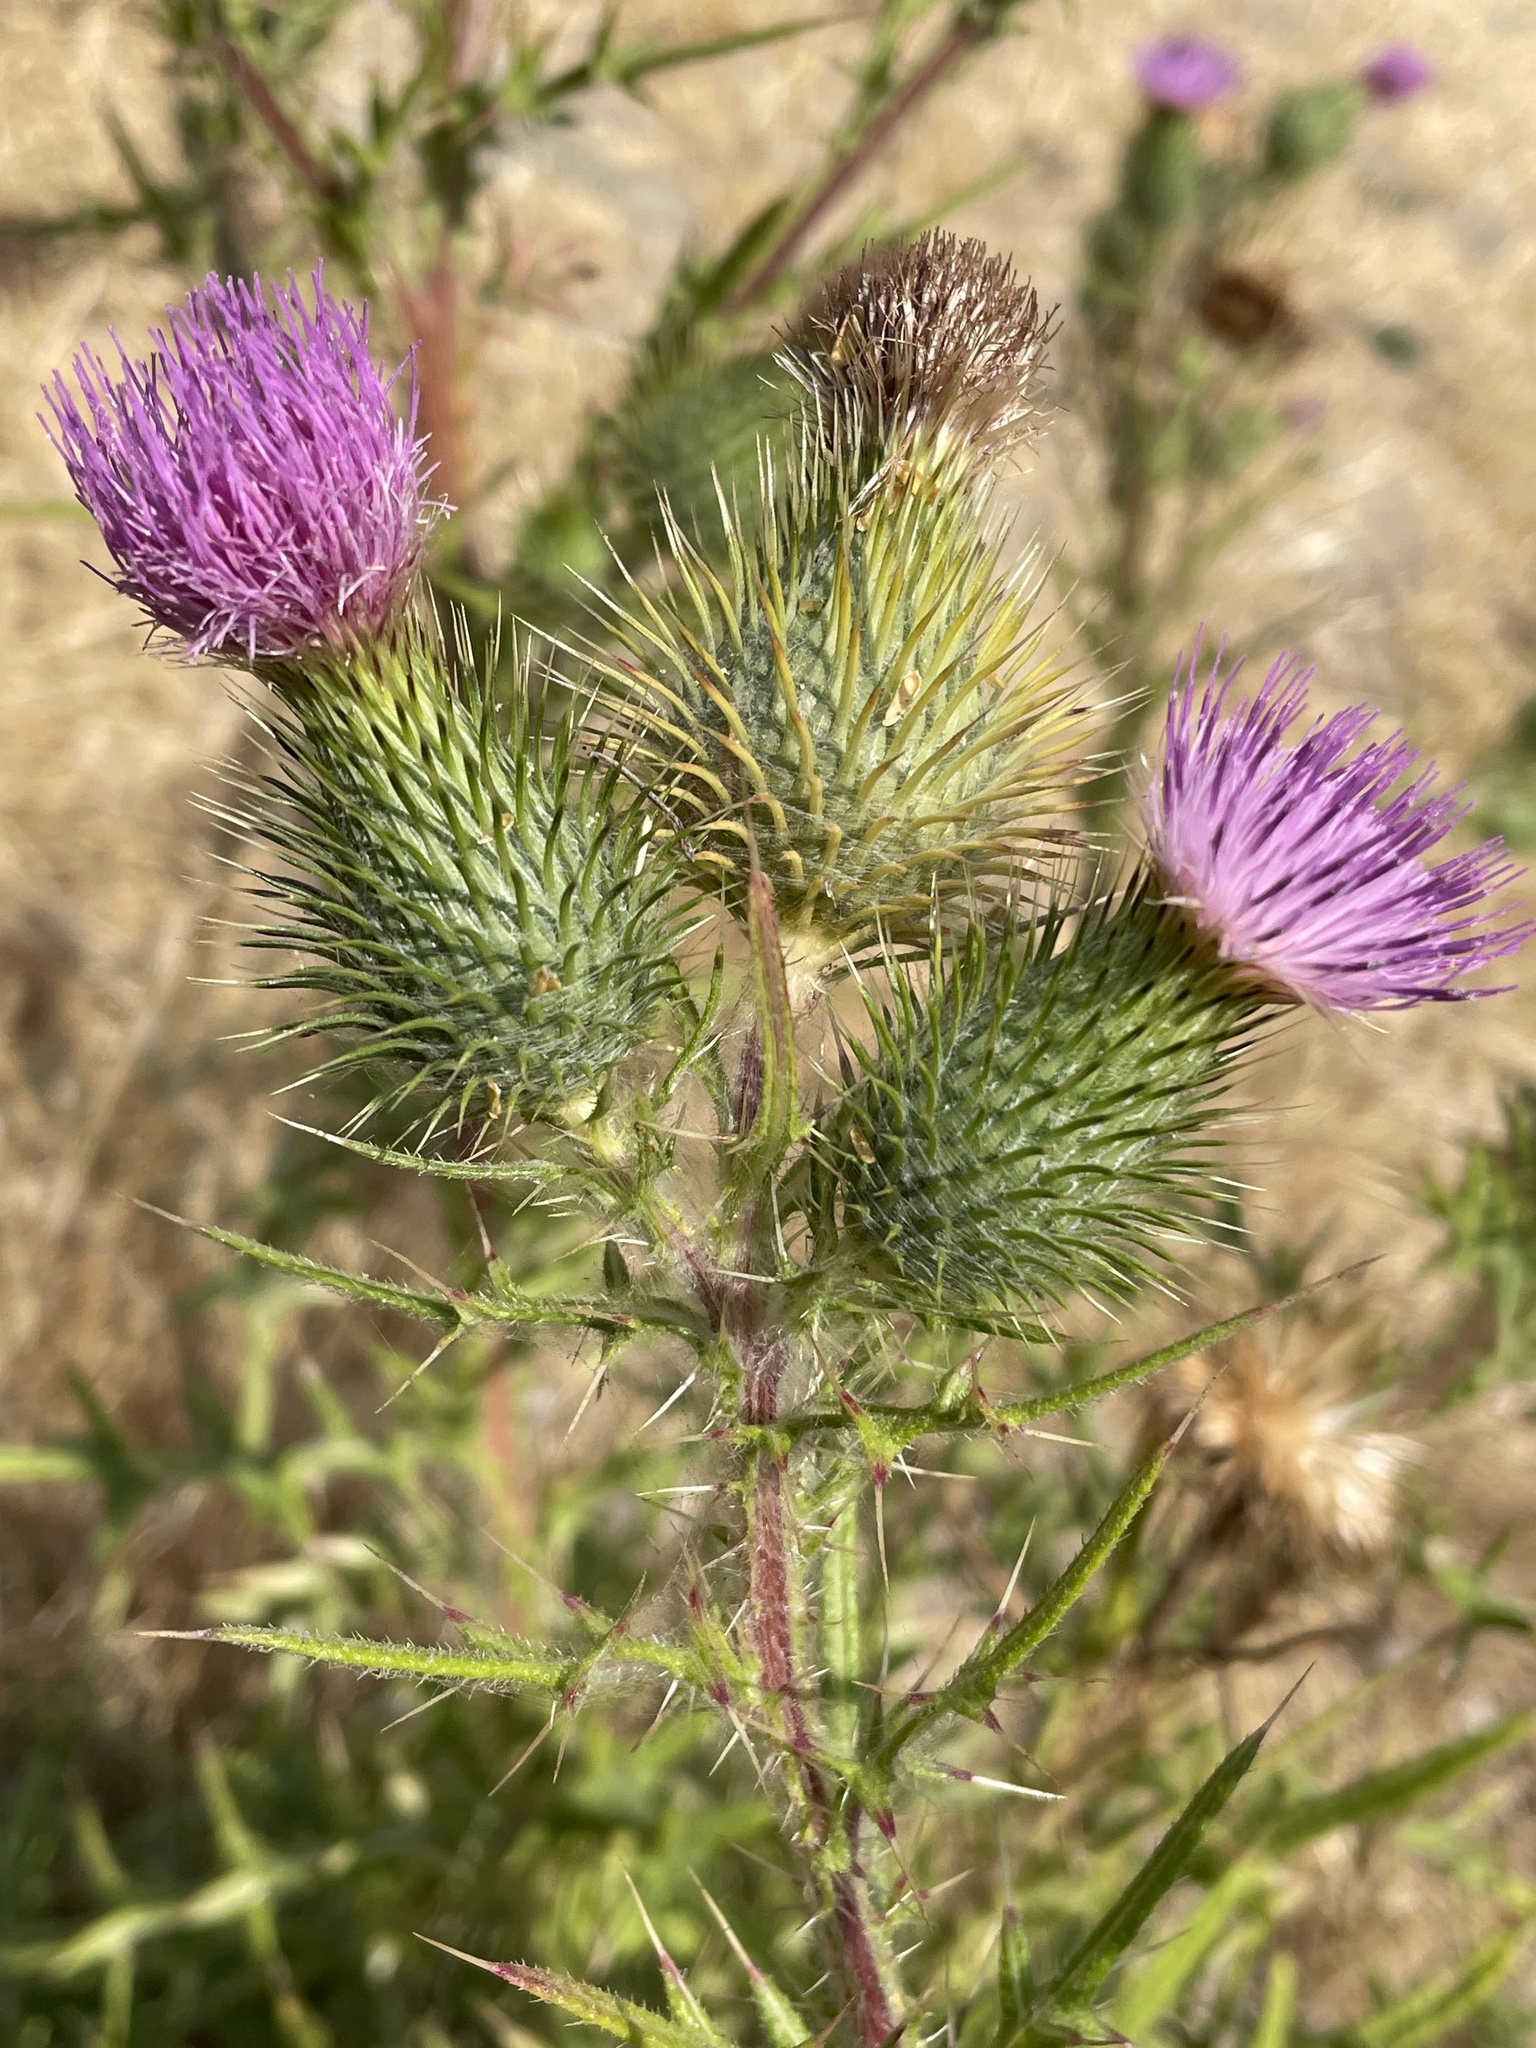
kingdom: Plantae
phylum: Tracheophyta
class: Magnoliopsida
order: Asterales
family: Asteraceae
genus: Cirsium
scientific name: Cirsium vulgare
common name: Bull thistle
